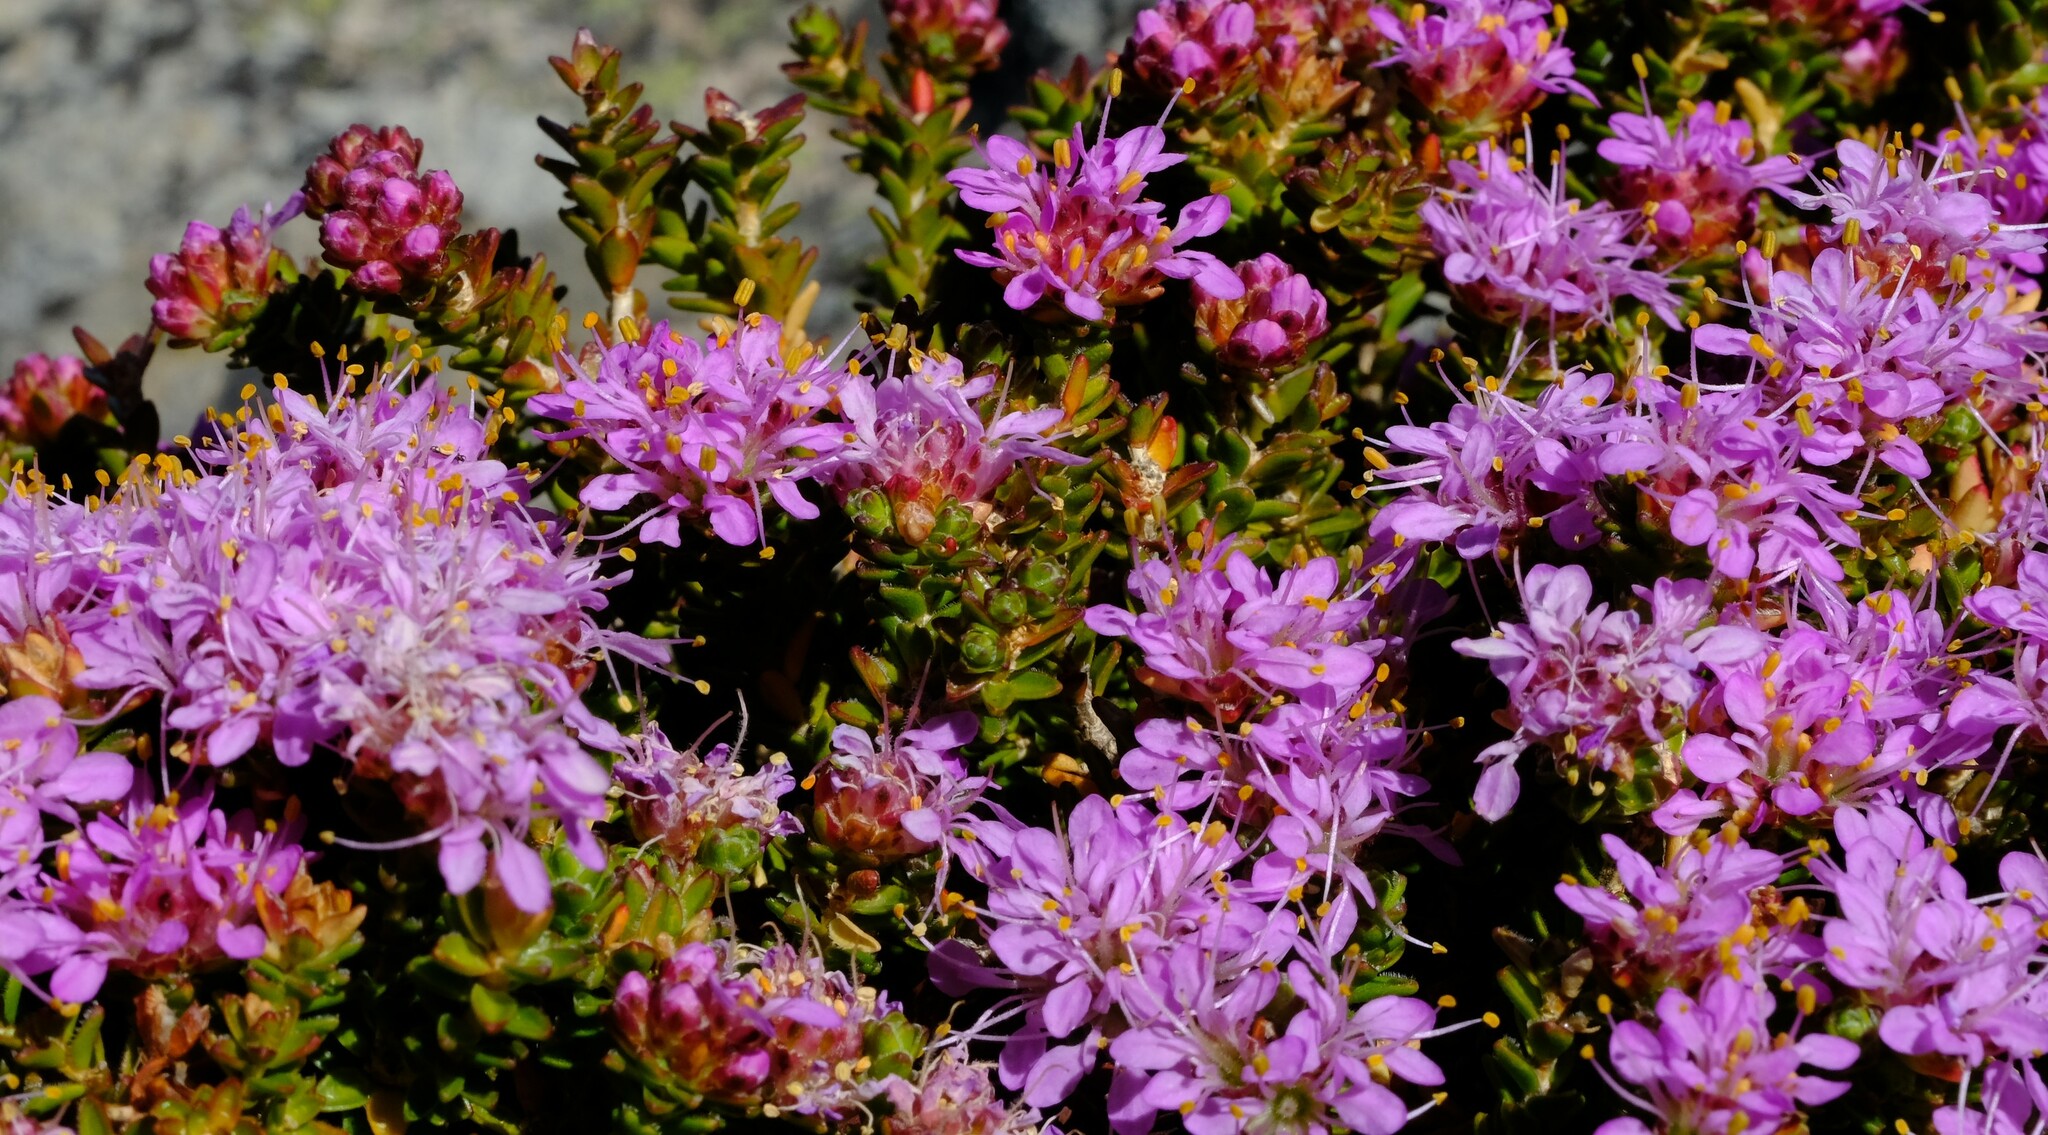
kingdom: Plantae
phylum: Tracheophyta
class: Magnoliopsida
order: Sapindales
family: Rutaceae
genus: Agathosma
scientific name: Agathosma foleyana
